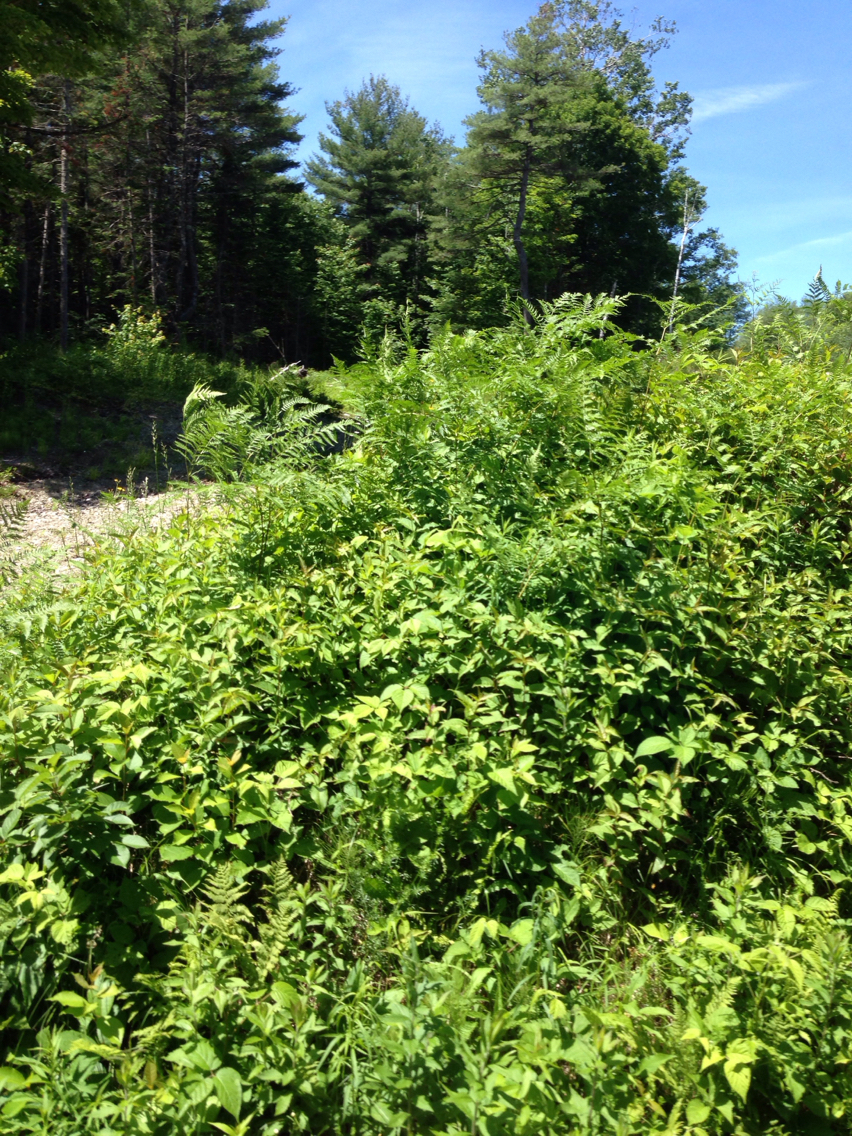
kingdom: Plantae
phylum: Tracheophyta
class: Polypodiopsida
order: Polypodiales
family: Dennstaedtiaceae
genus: Pteridium
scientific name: Pteridium aquilinum
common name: Bracken
